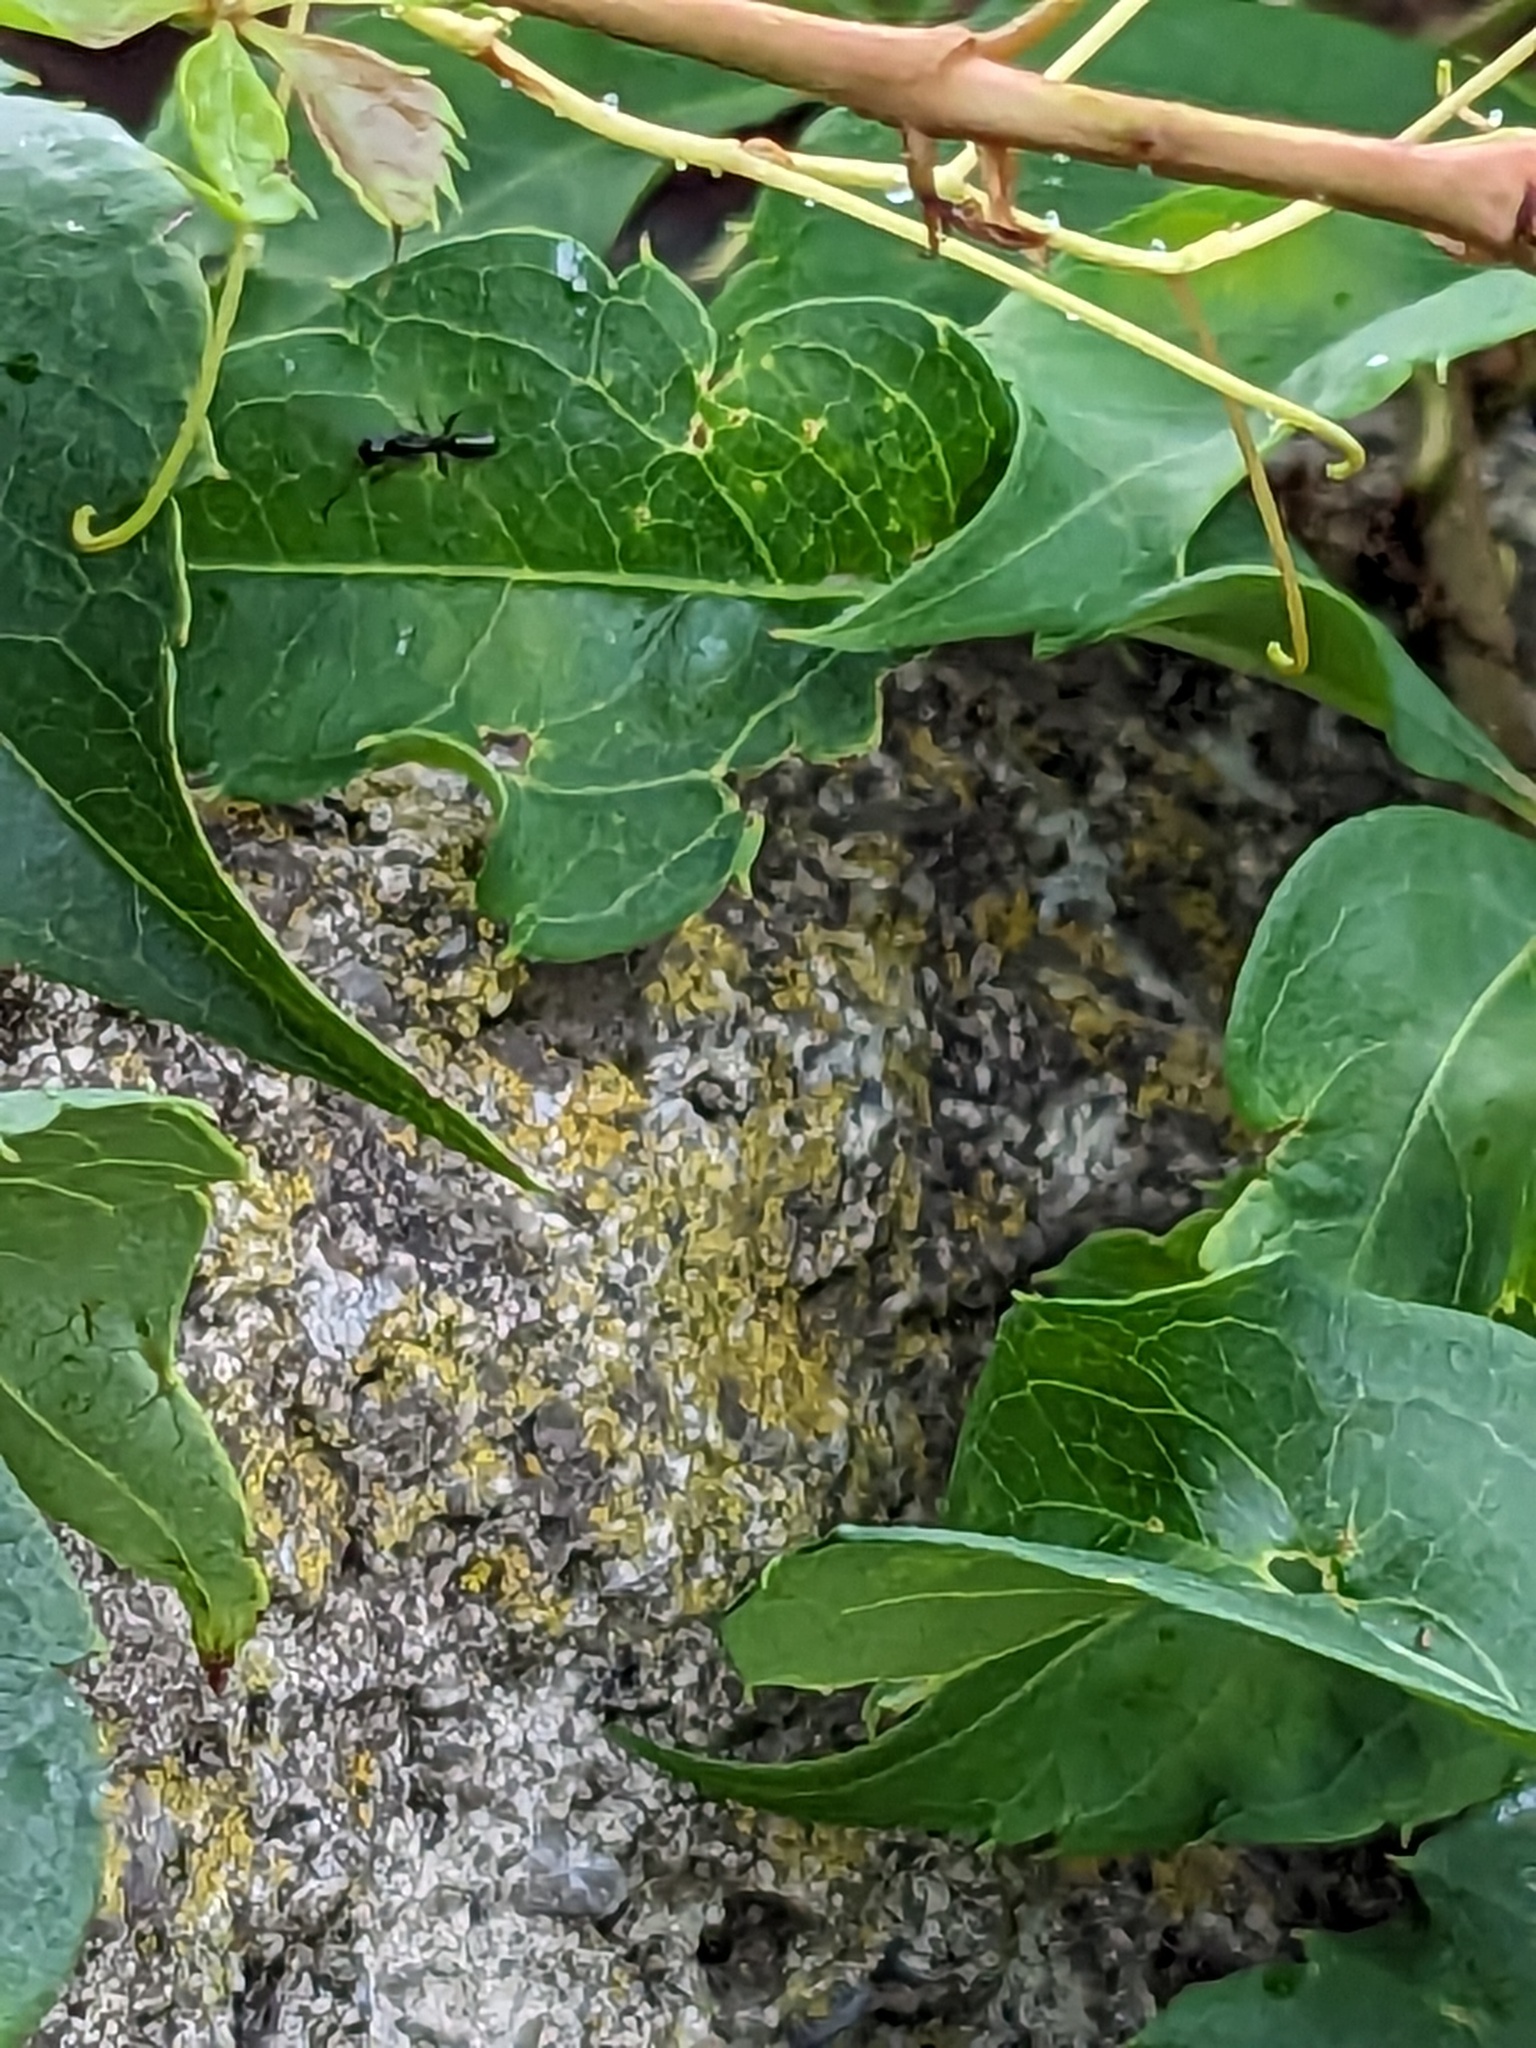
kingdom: Plantae
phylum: Tracheophyta
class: Magnoliopsida
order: Vitales
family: Vitaceae
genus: Parthenocissus
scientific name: Parthenocissus inserta
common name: False virginia-creeper
